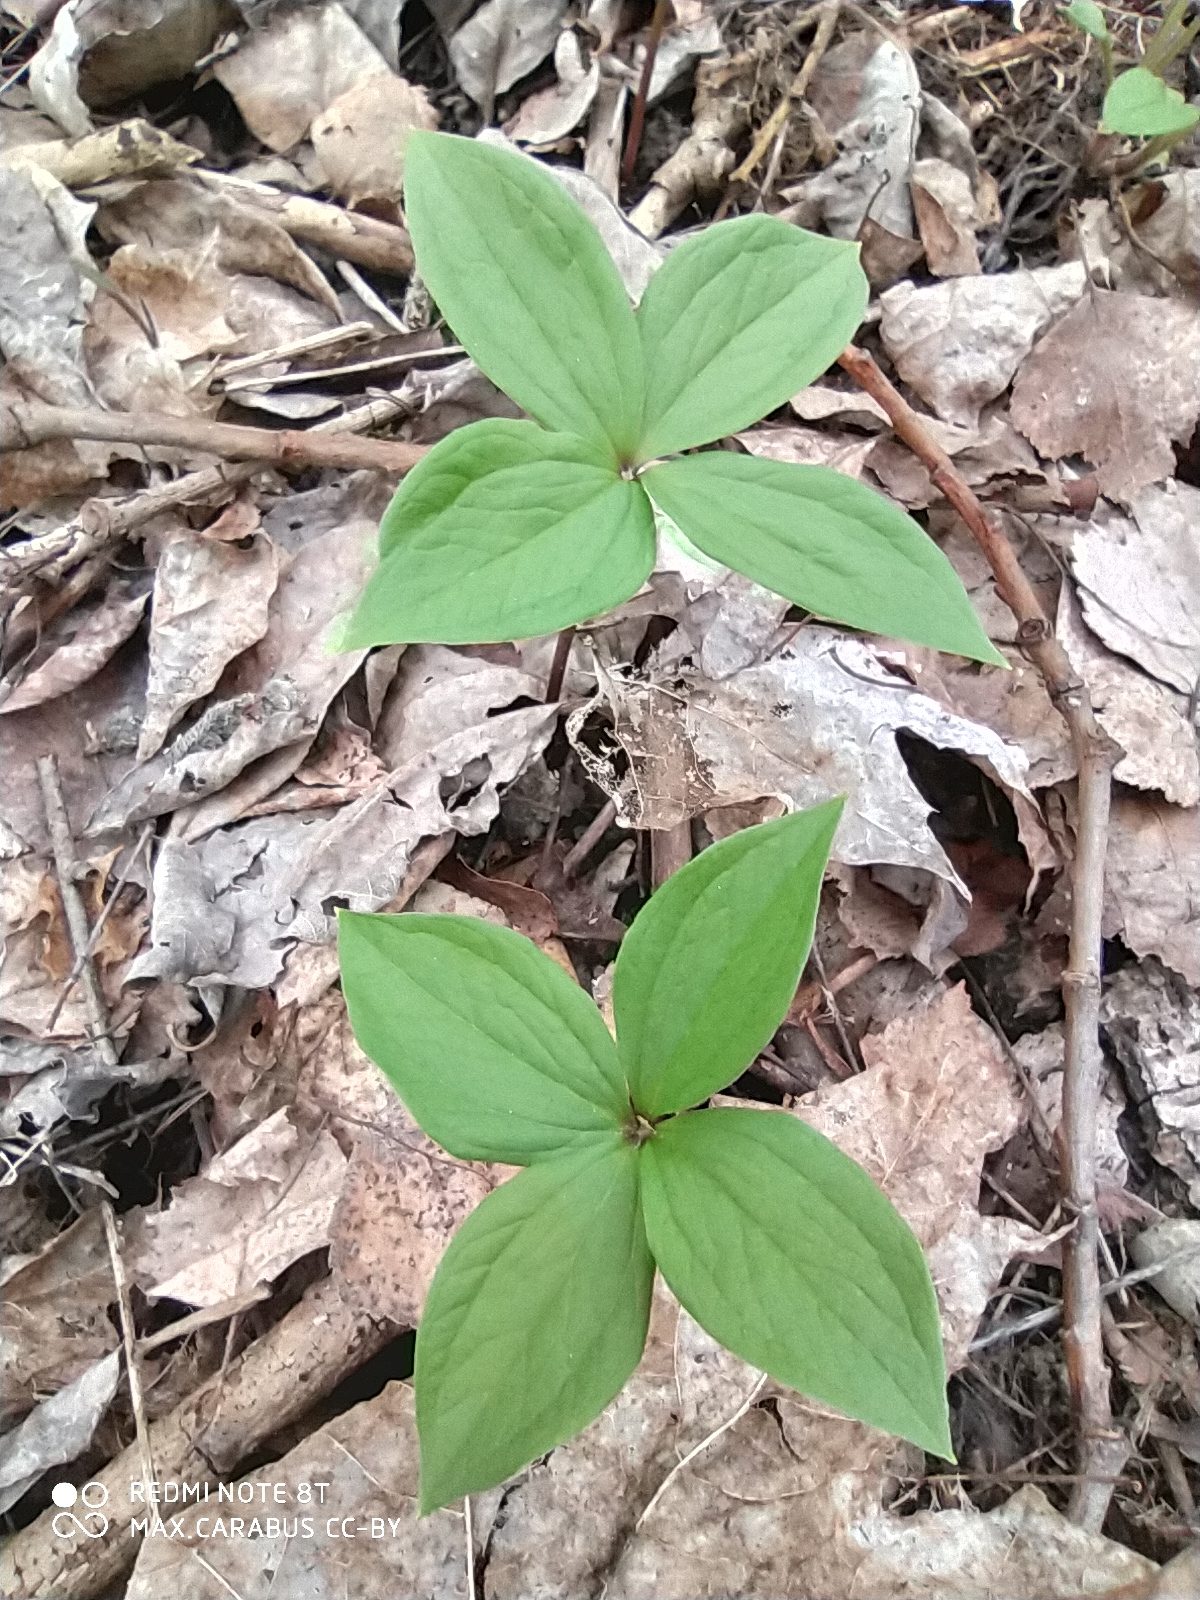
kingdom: Plantae
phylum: Tracheophyta
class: Liliopsida
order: Liliales
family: Melanthiaceae
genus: Paris
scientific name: Paris quadrifolia
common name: Herb-paris
